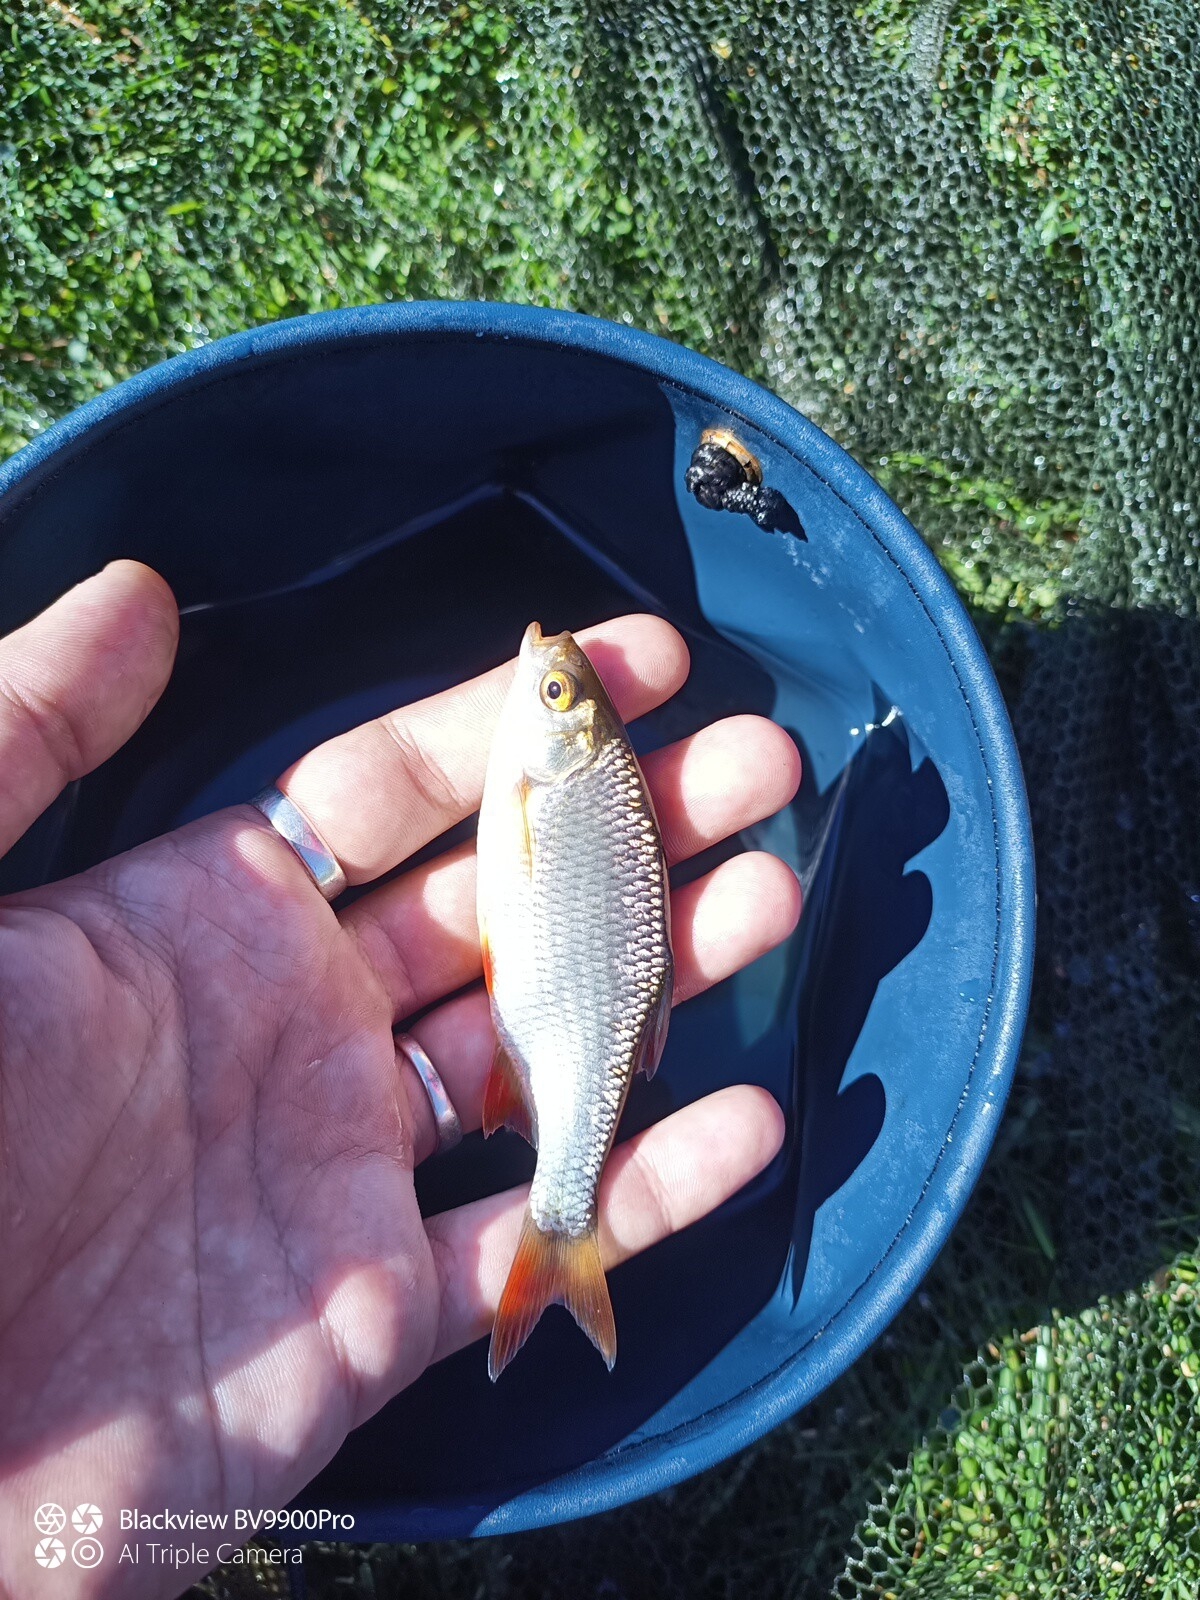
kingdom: Animalia
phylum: Chordata
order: Cypriniformes
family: Cyprinidae
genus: Rutilus
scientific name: Rutilus rutilus
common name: Roach
